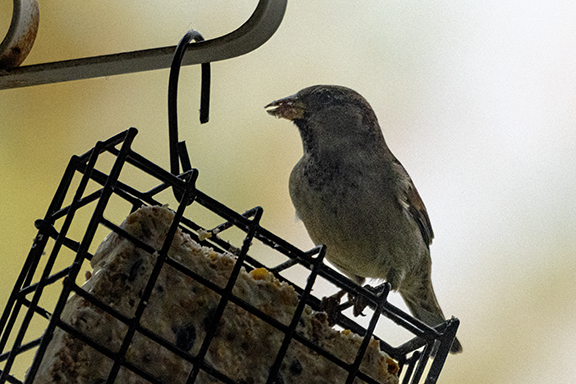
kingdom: Animalia
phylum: Chordata
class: Aves
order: Passeriformes
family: Passeridae
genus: Passer
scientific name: Passer domesticus
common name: House sparrow
